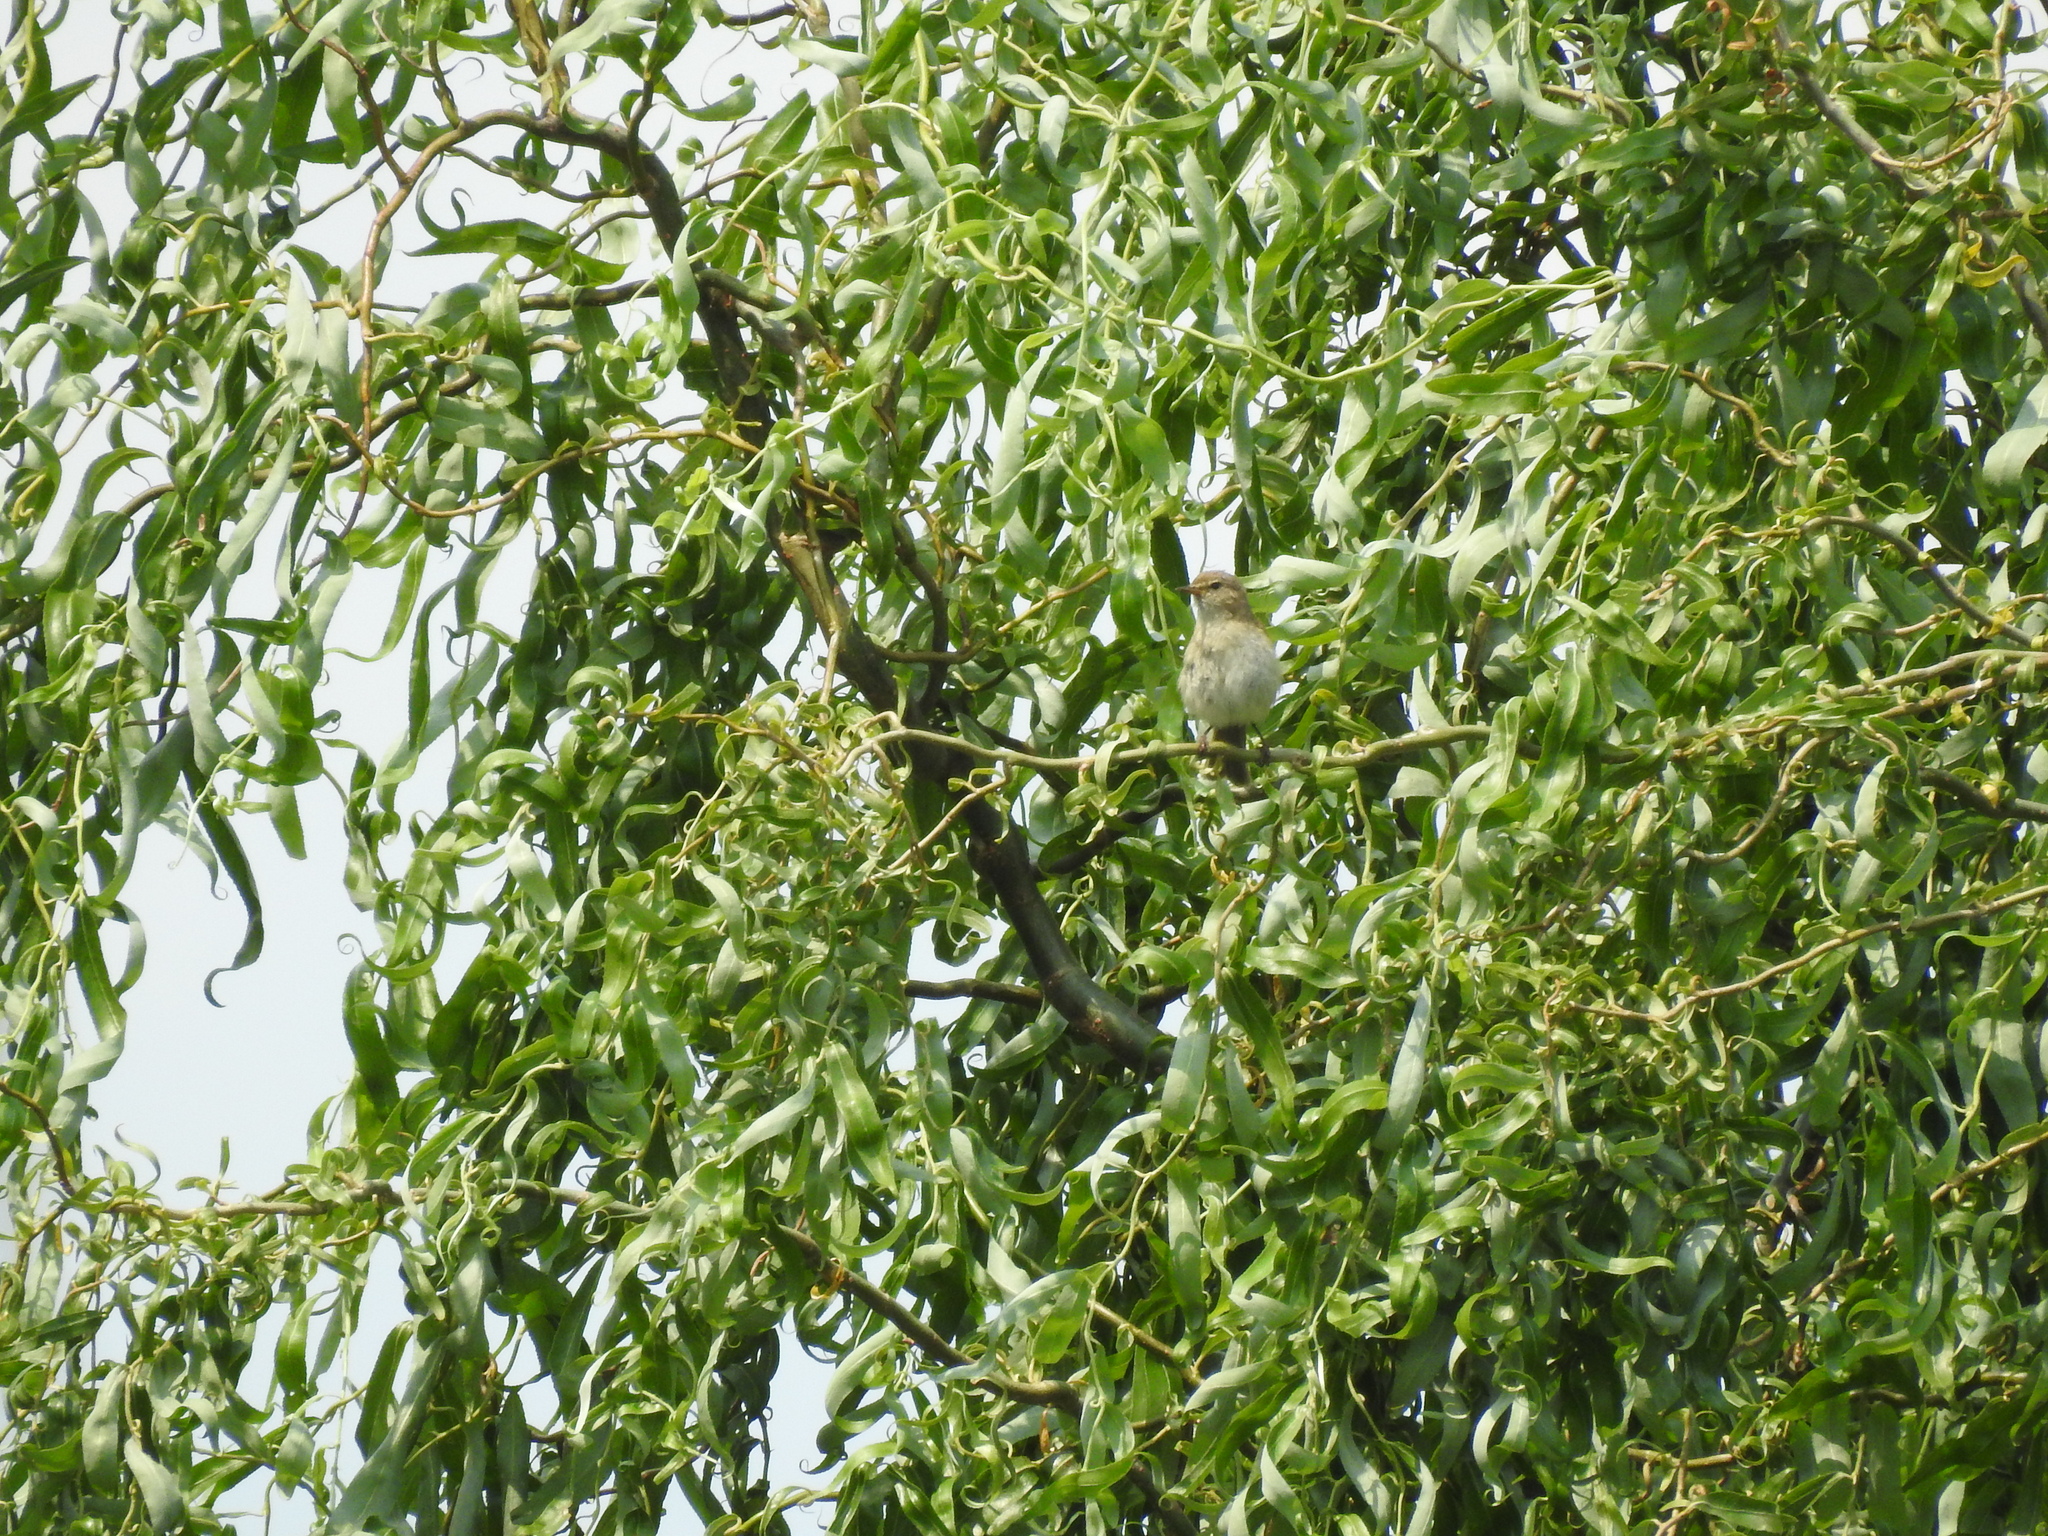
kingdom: Animalia
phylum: Chordata
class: Aves
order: Passeriformes
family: Phylloscopidae
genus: Phylloscopus
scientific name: Phylloscopus collybita
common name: Common chiffchaff
